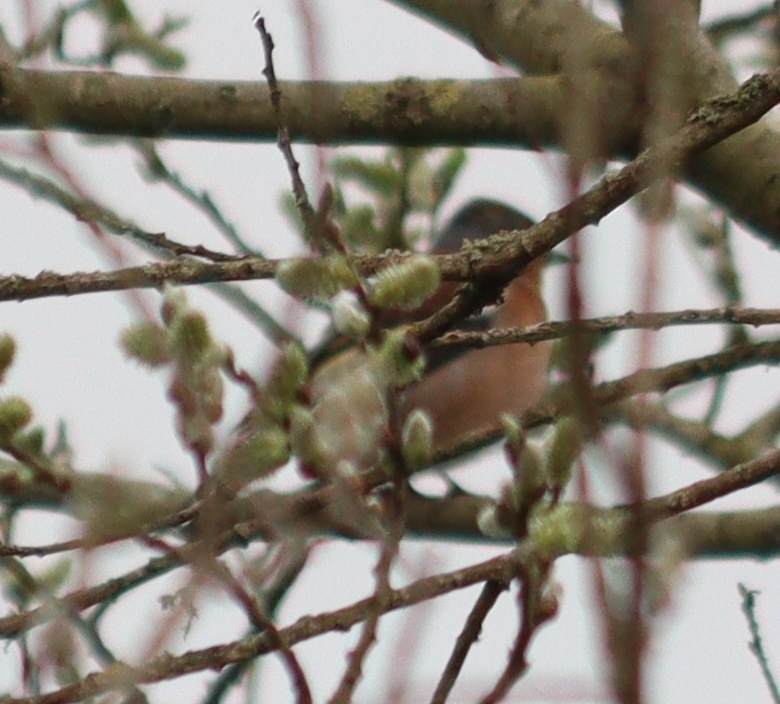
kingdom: Animalia
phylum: Chordata
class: Aves
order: Passeriformes
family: Fringillidae
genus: Fringilla
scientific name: Fringilla coelebs
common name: Common chaffinch
